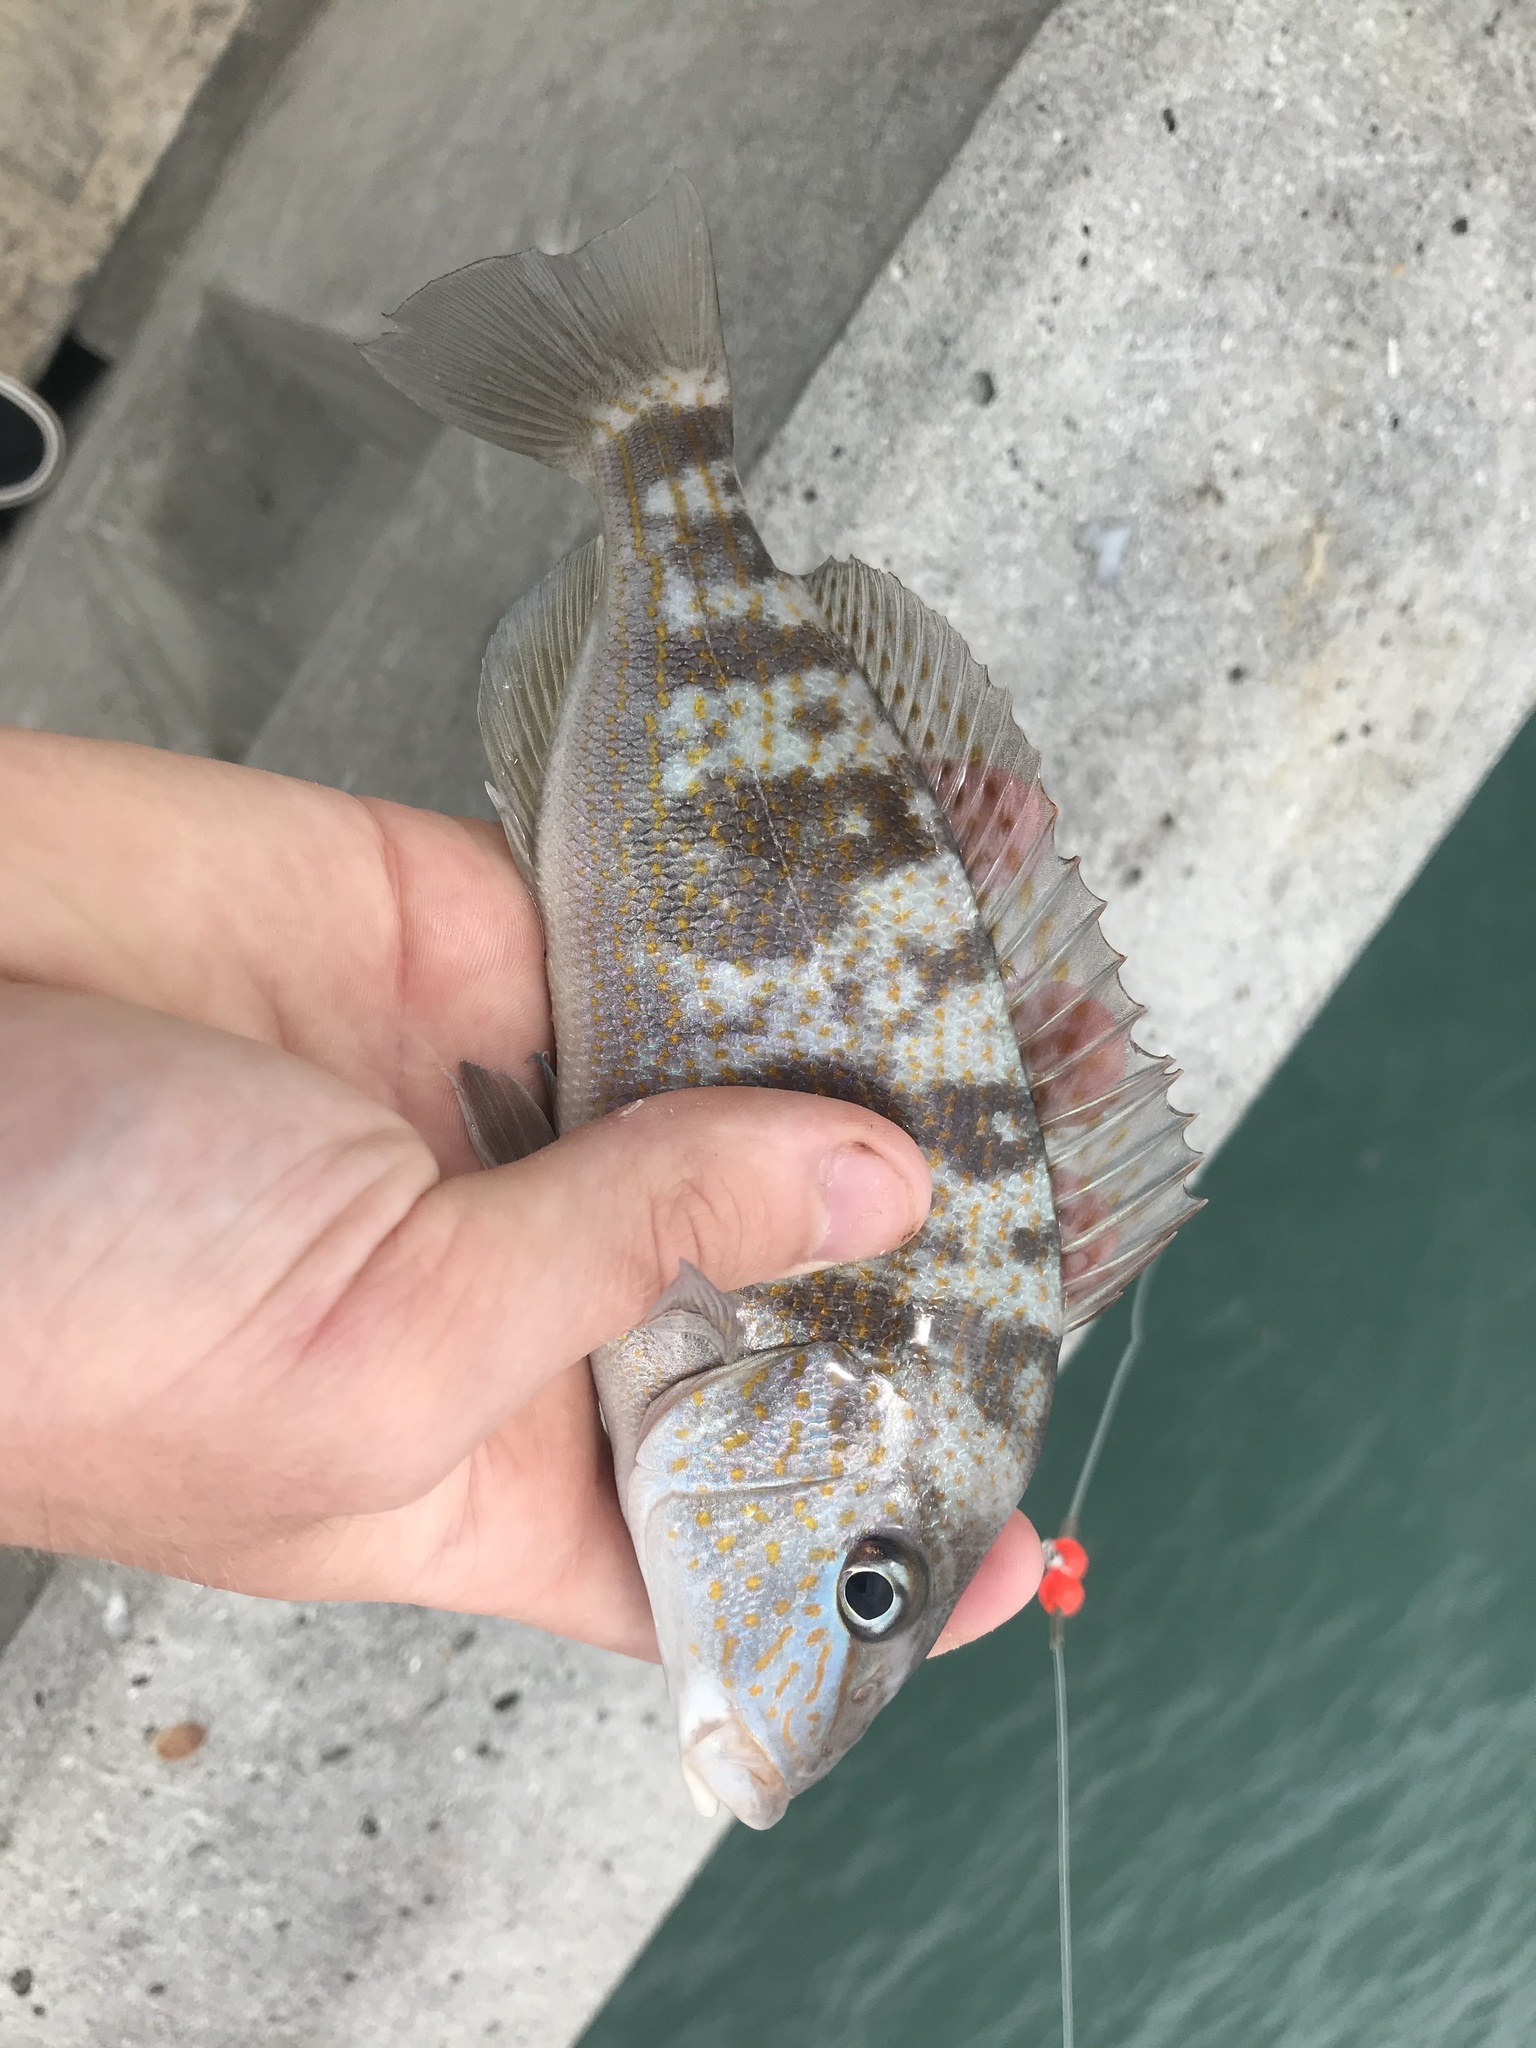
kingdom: Animalia
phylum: Chordata
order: Perciformes
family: Haemulidae
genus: Orthopristis
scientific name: Orthopristis chrysoptera
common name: Pigfish
